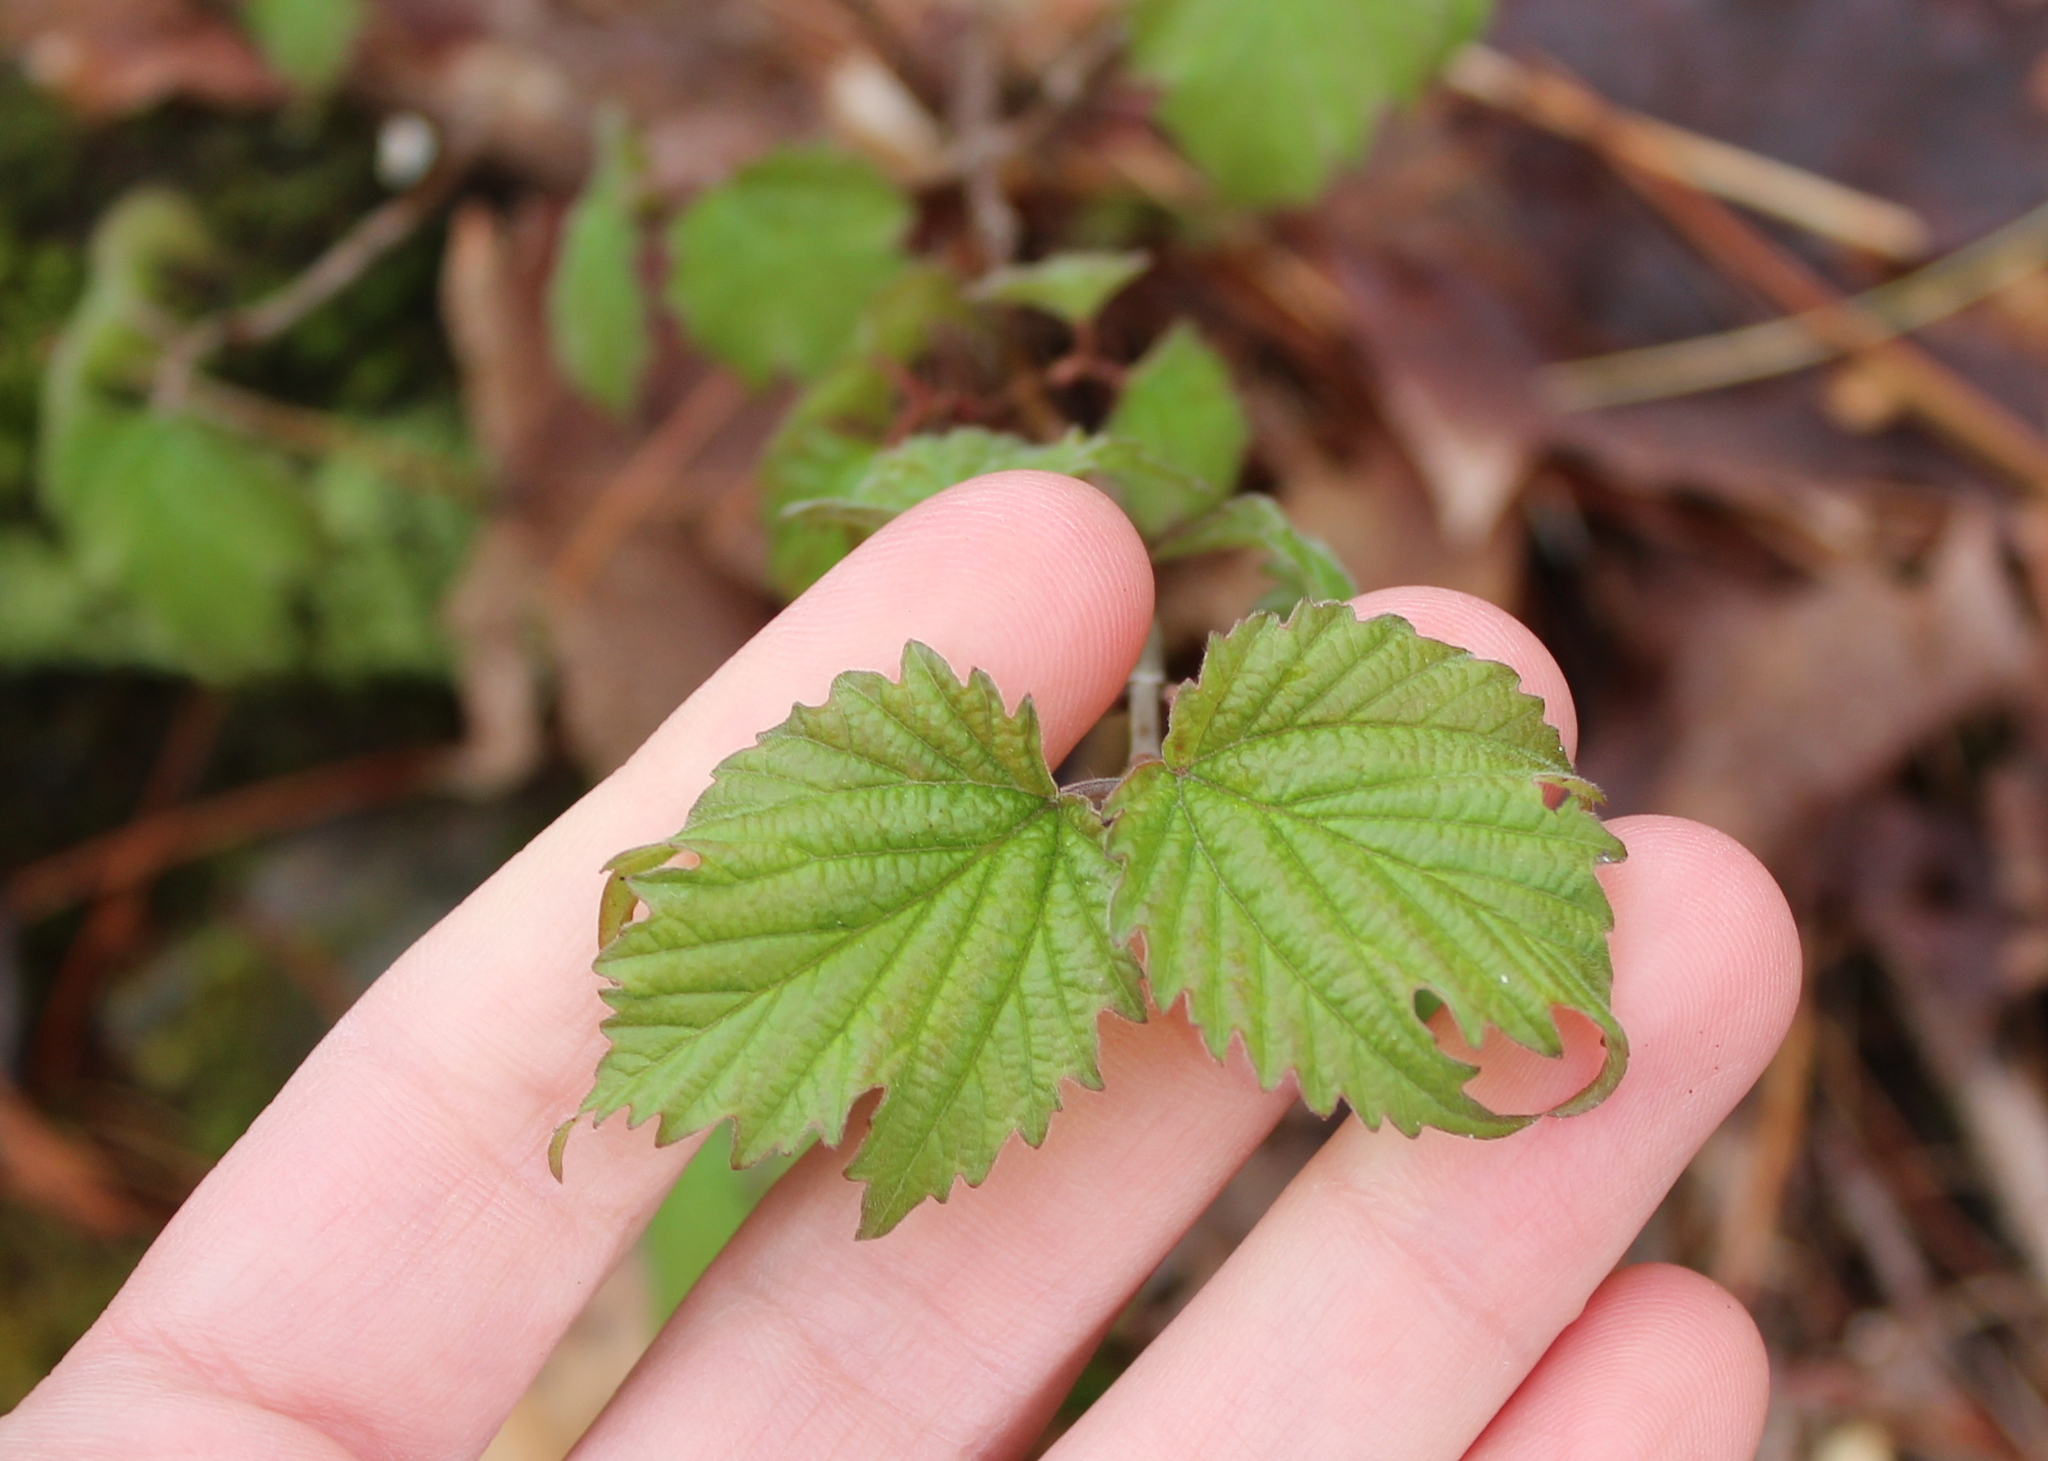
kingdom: Plantae
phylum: Tracheophyta
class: Magnoliopsida
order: Dipsacales
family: Viburnaceae
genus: Viburnum
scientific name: Viburnum acerifolium
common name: Dockmackie
